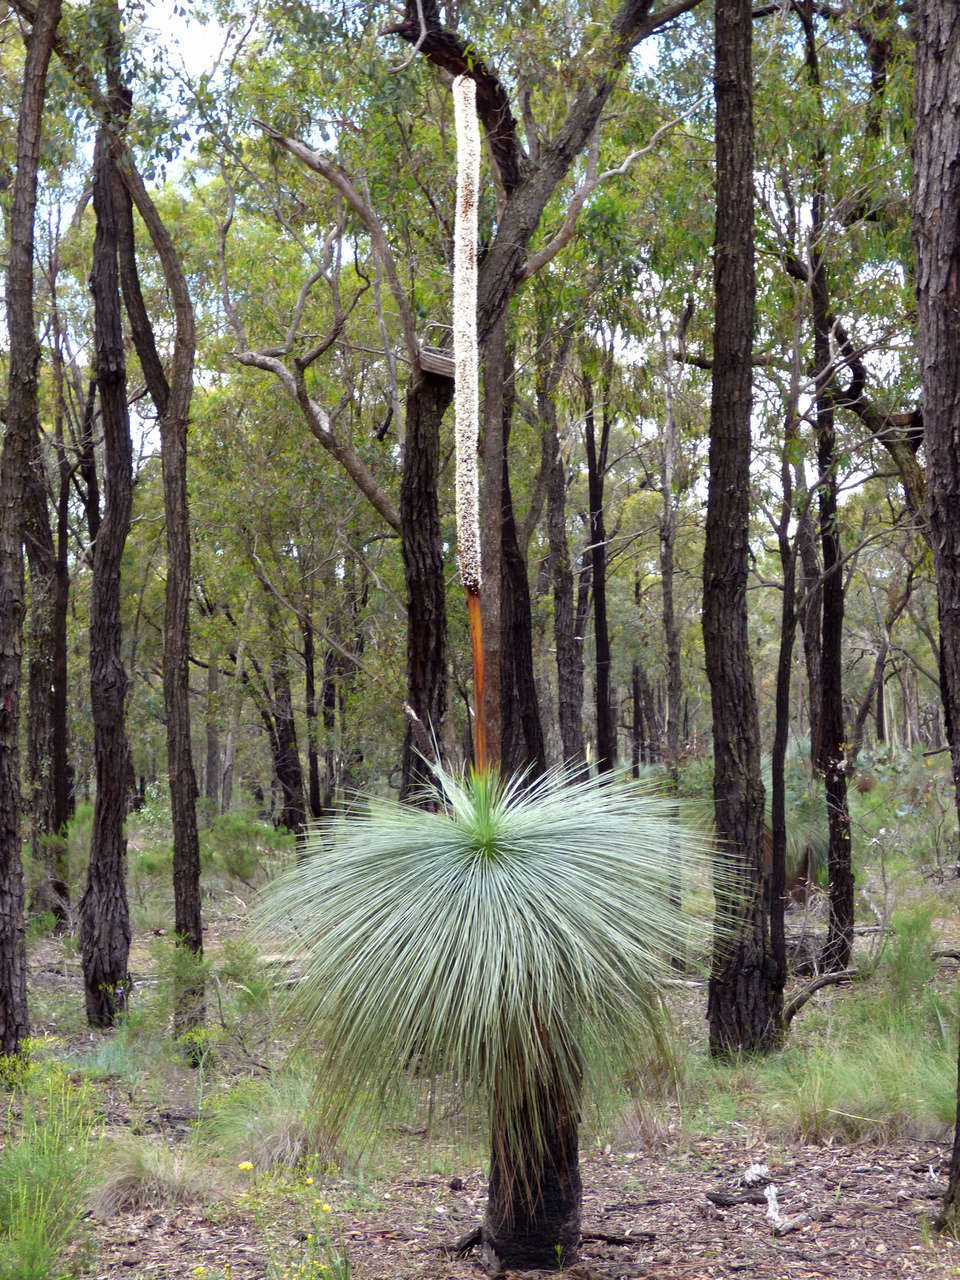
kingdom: Plantae
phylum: Tracheophyta
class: Liliopsida
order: Asparagales
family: Asphodelaceae
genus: Xanthorrhoea
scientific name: Xanthorrhoea glauca
